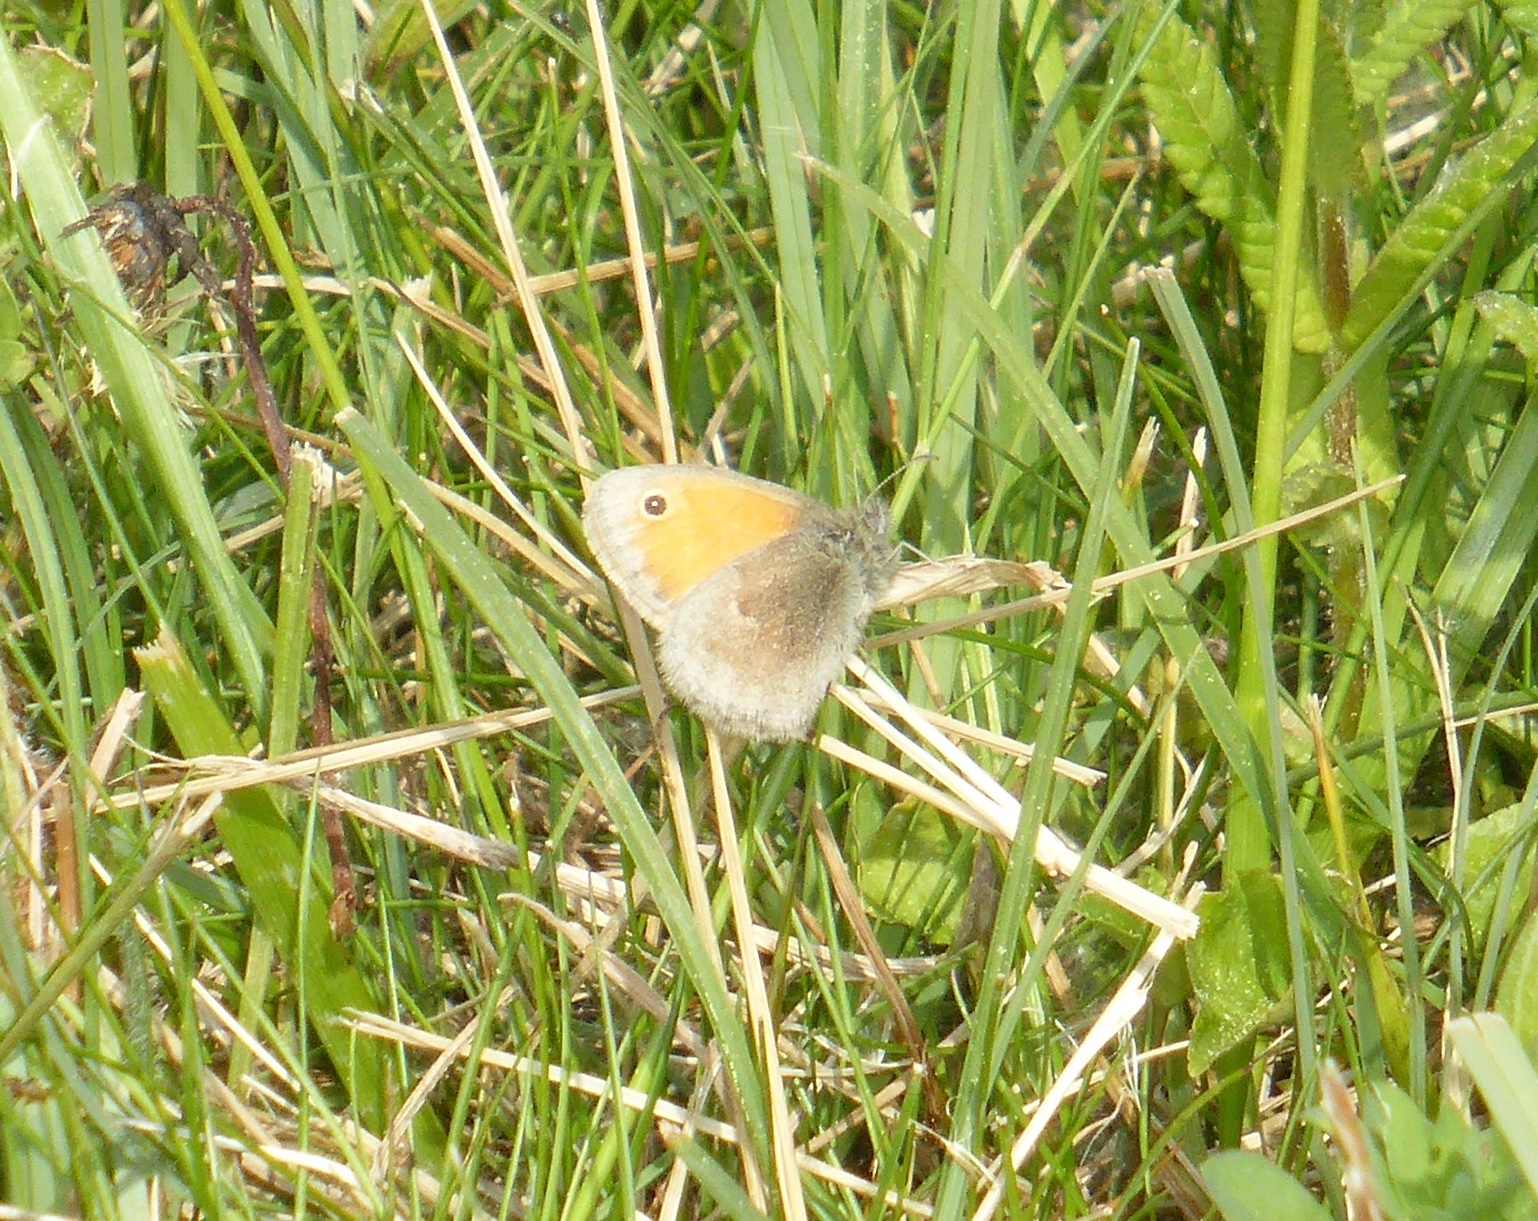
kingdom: Animalia
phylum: Arthropoda
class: Insecta
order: Lepidoptera
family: Nymphalidae
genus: Coenonympha
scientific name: Coenonympha pamphilus
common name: Small heath
